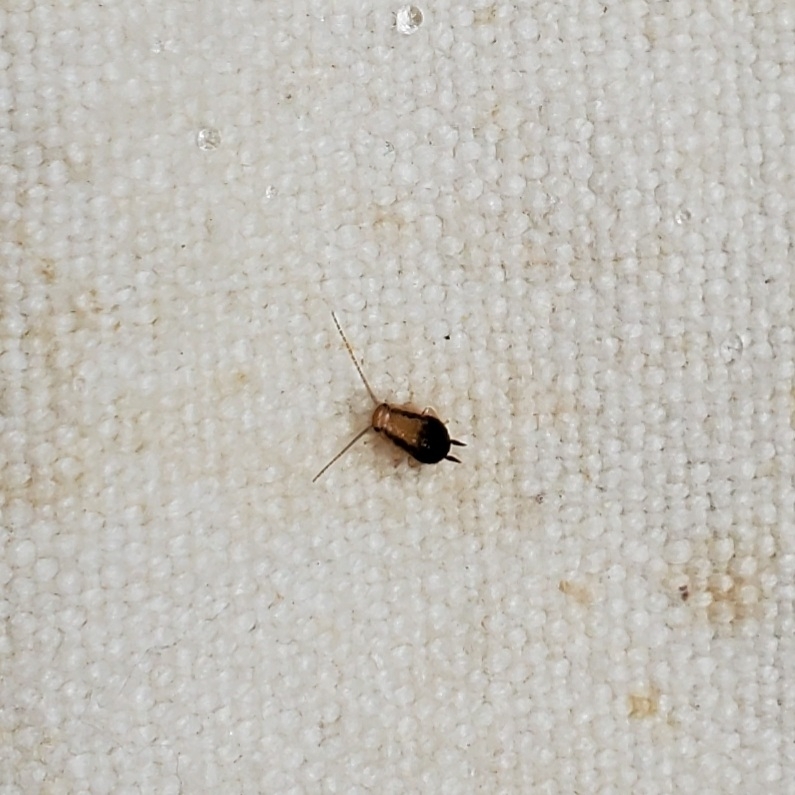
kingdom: Animalia
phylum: Arthropoda
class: Insecta
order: Blattodea
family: Ectobiidae
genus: Chorisoneura
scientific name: Chorisoneura texensis
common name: Small texas cockroach
